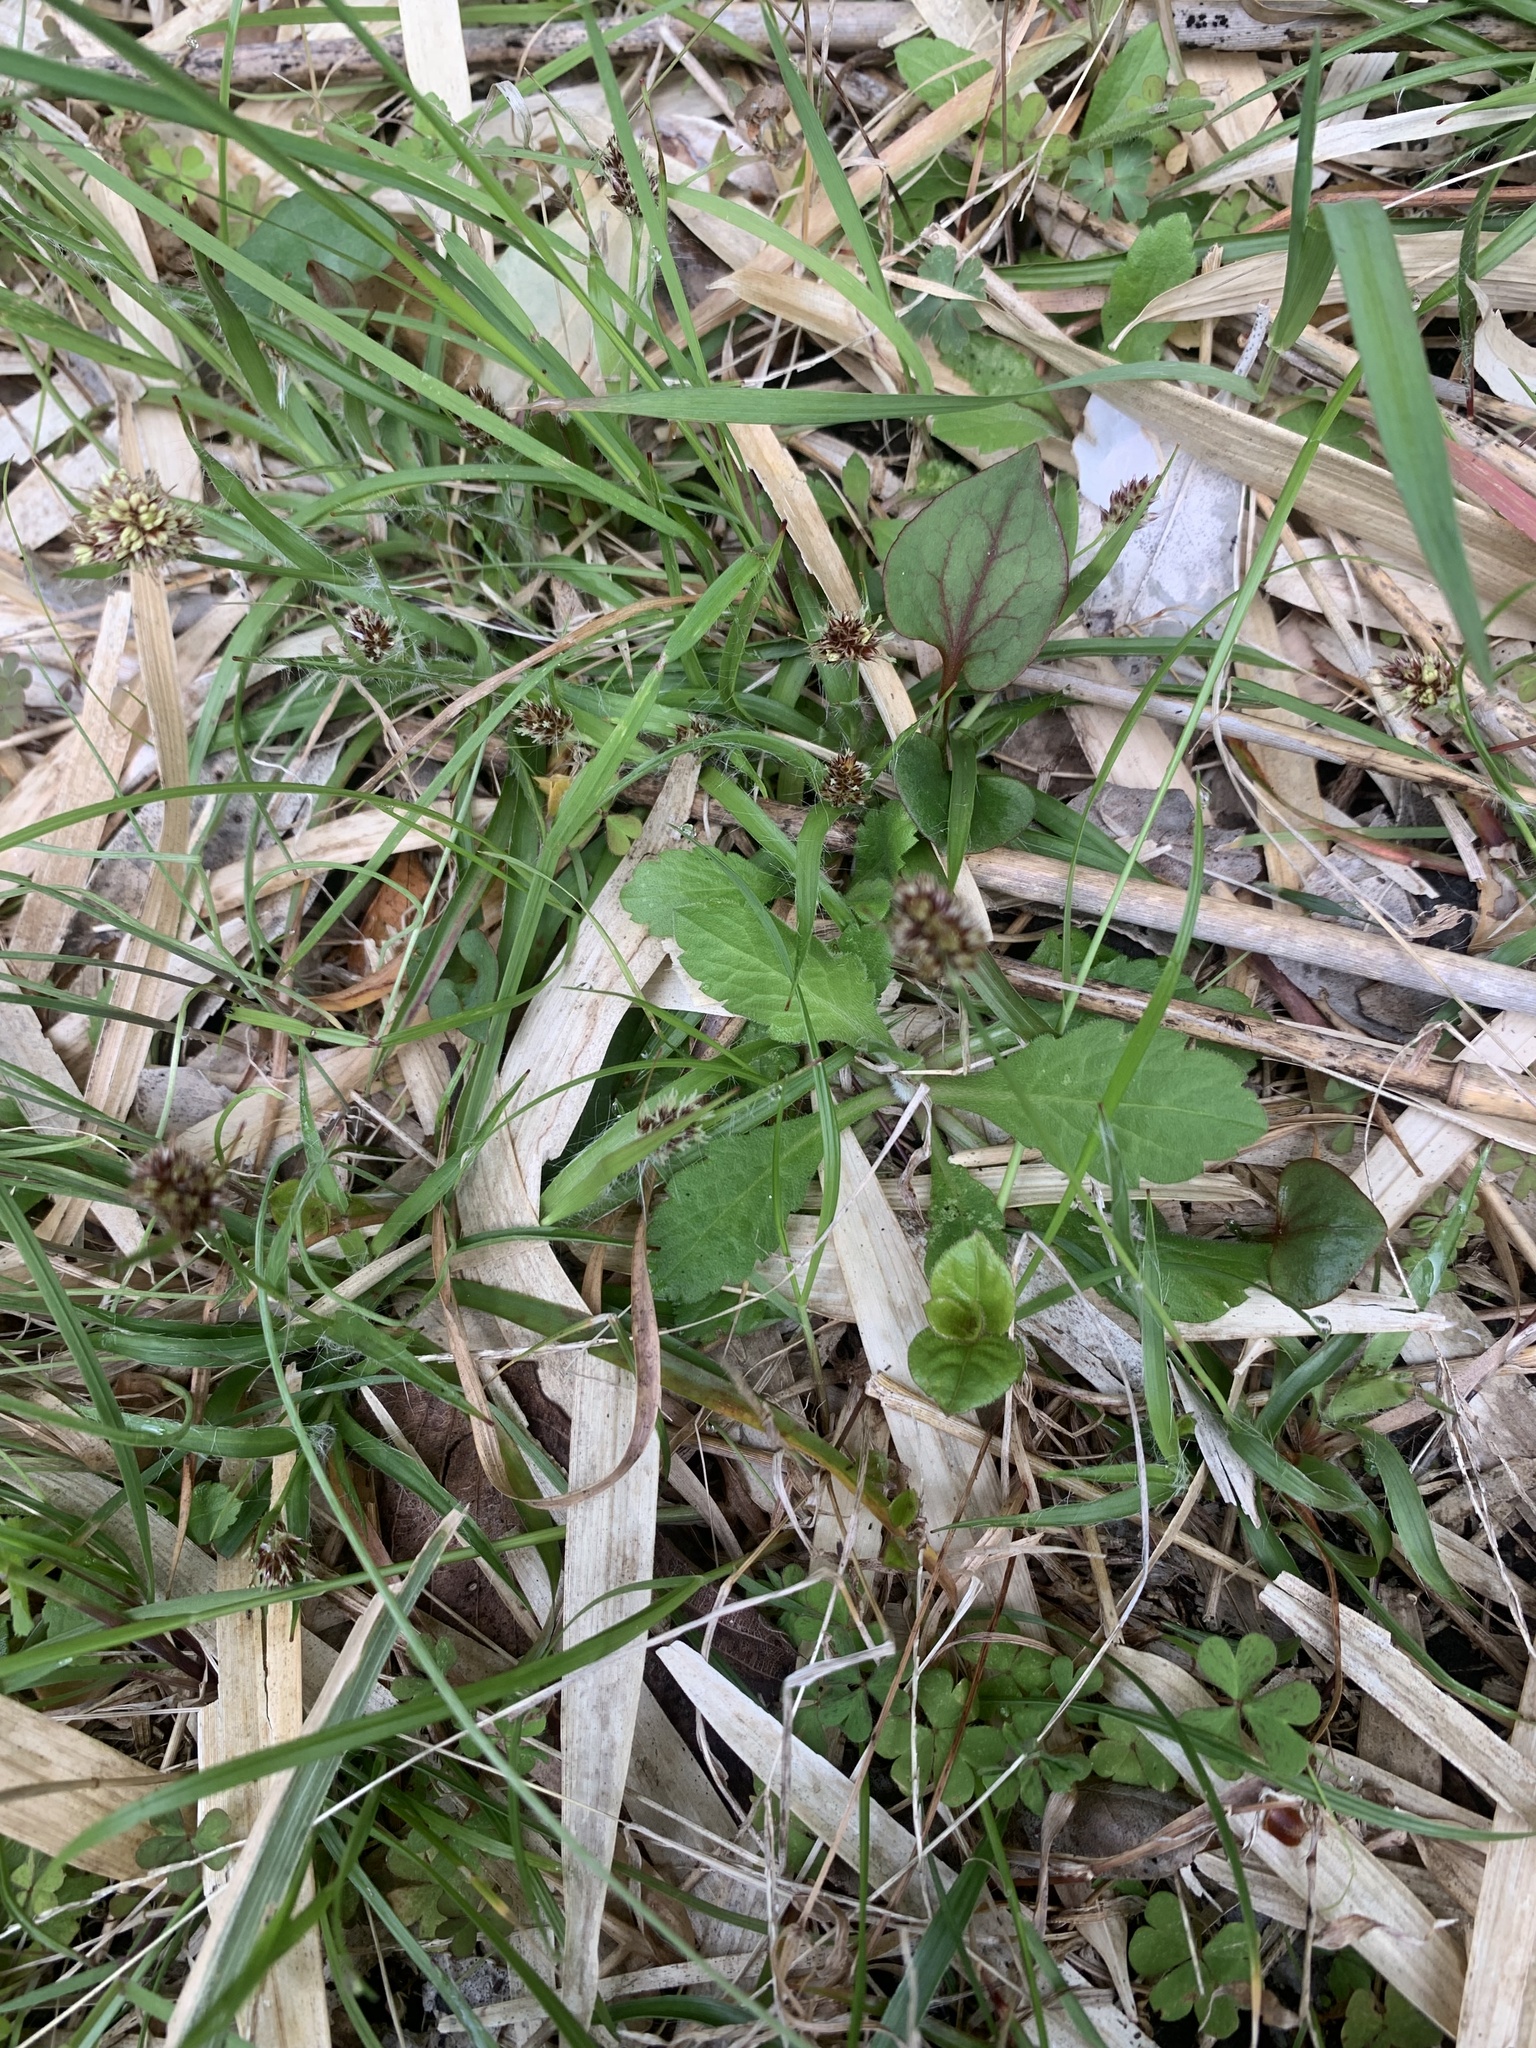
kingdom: Plantae
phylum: Tracheophyta
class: Liliopsida
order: Poales
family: Juncaceae
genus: Luzula
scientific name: Luzula capitata
